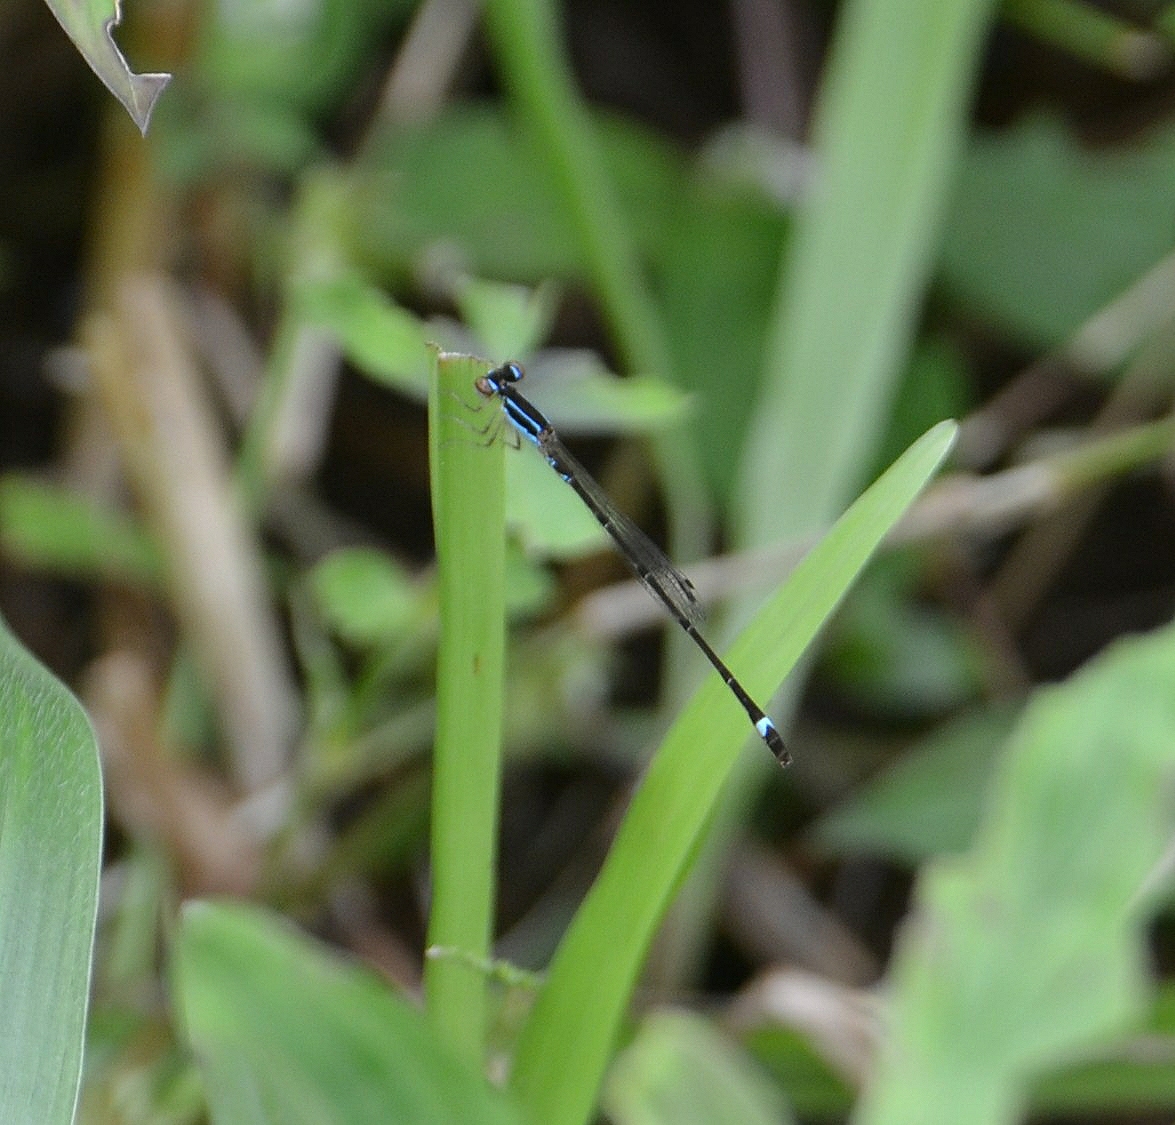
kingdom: Animalia
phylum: Arthropoda
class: Insecta
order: Odonata
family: Coenagrionidae
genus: Mortonagrion
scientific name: Mortonagrion varralli
